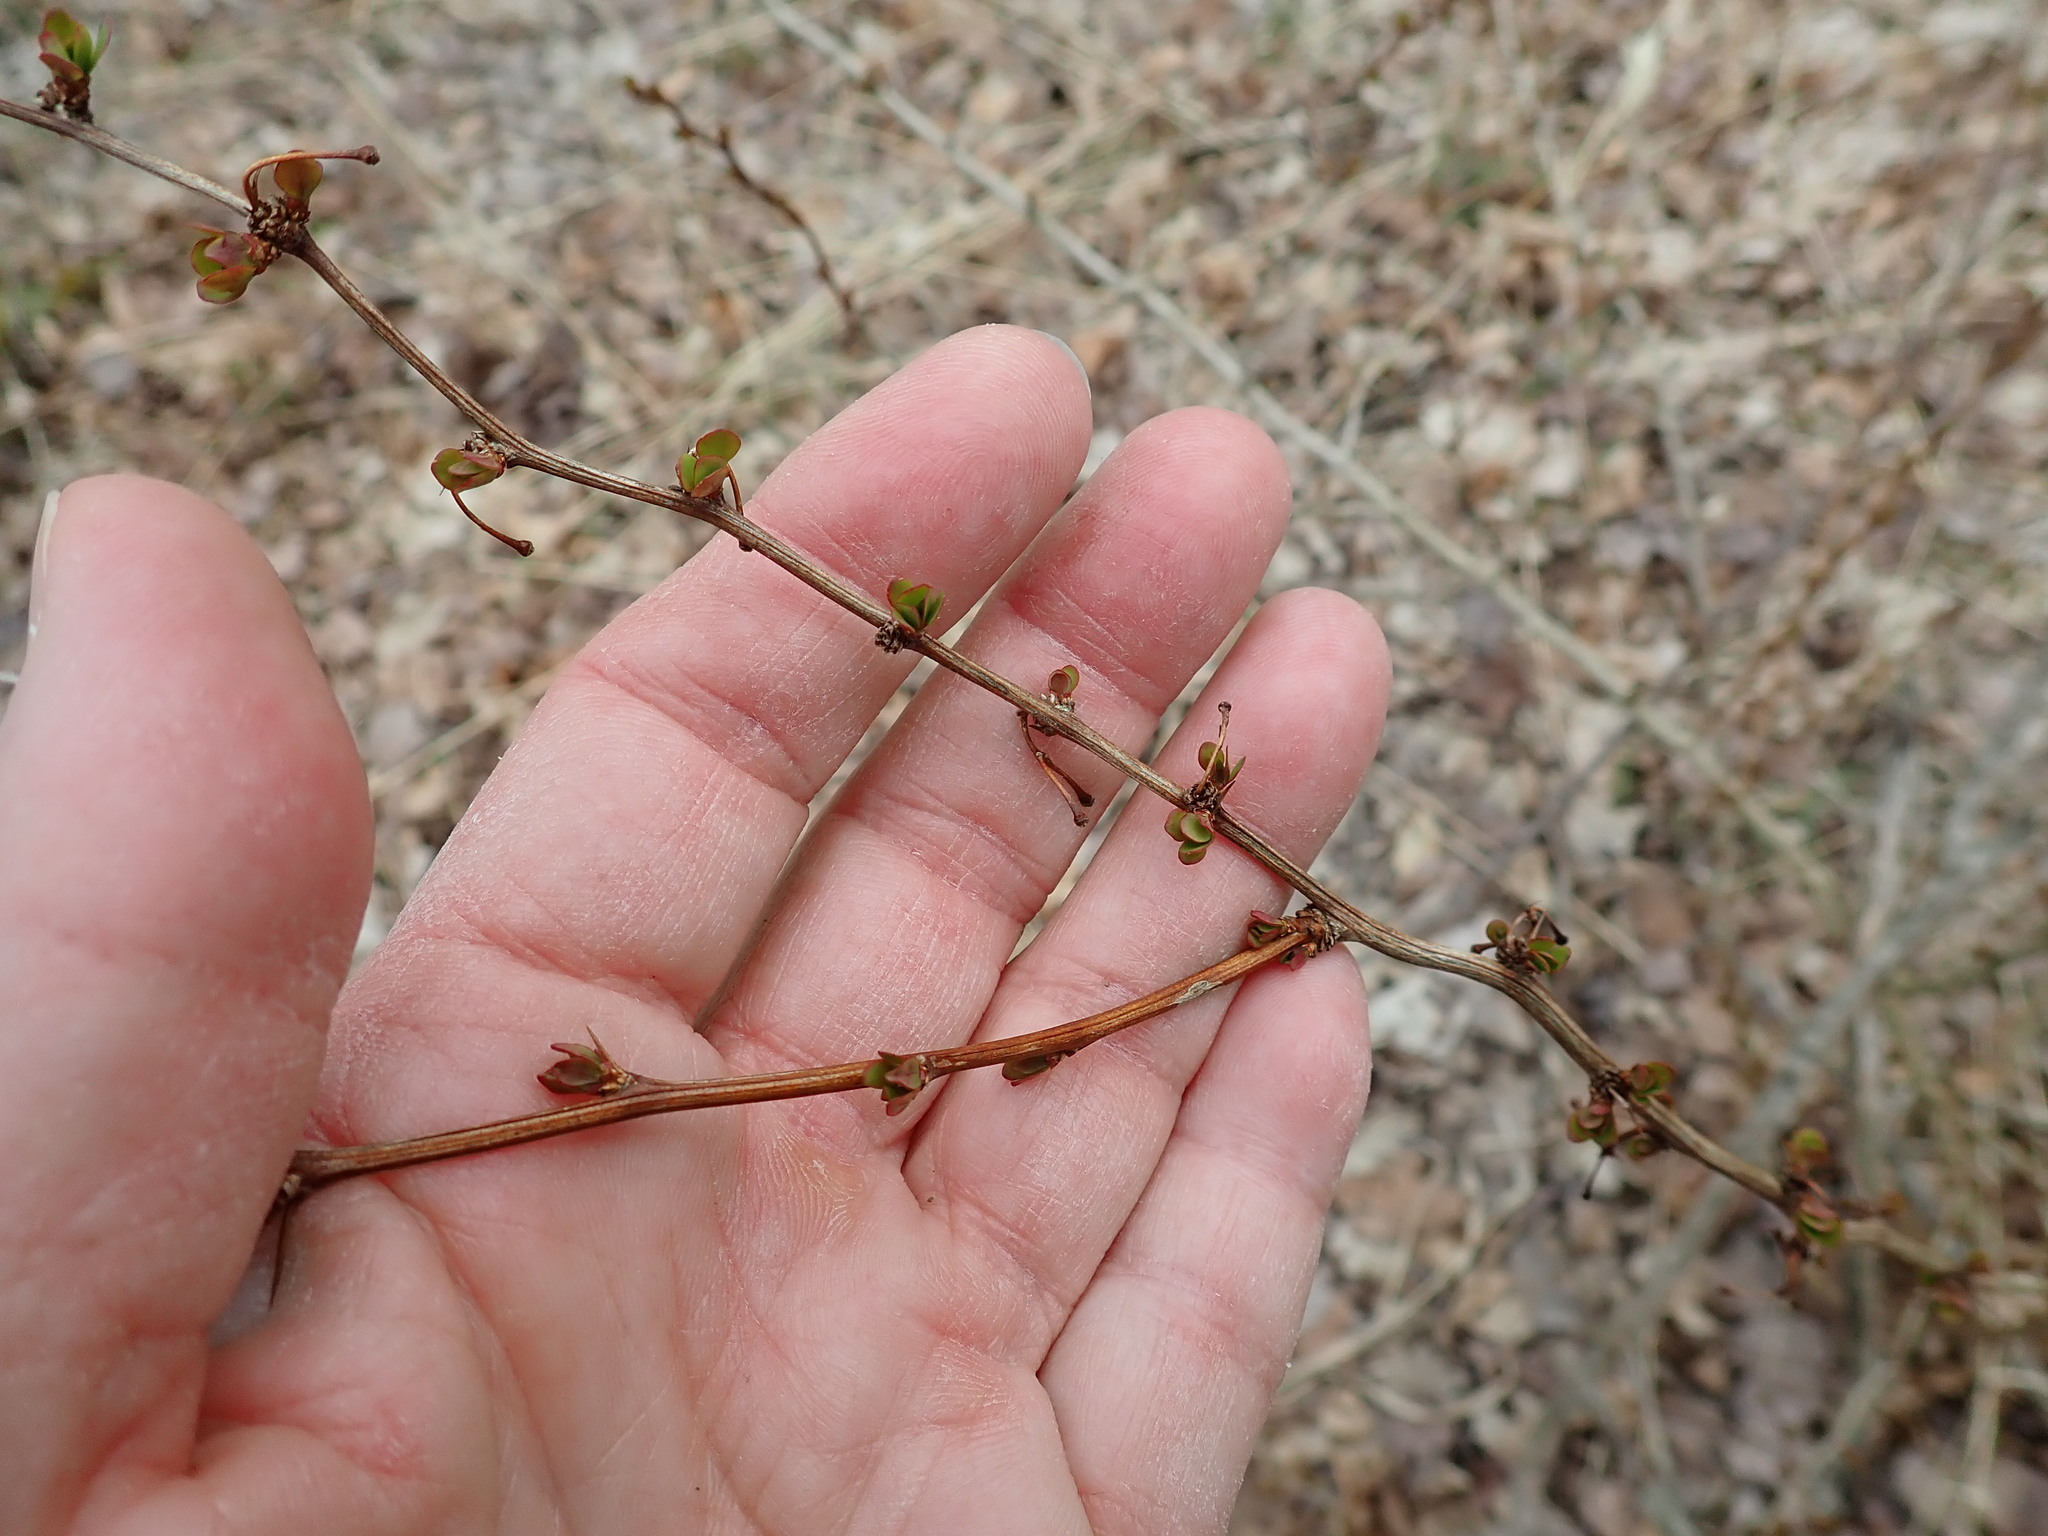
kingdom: Plantae
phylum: Tracheophyta
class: Magnoliopsida
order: Ranunculales
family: Berberidaceae
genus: Berberis
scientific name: Berberis thunbergii
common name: Japanese barberry
